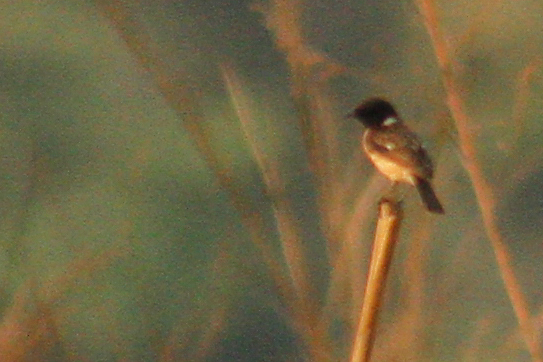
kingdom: Animalia
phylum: Chordata
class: Aves
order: Passeriformes
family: Muscicapidae
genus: Saxicola
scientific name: Saxicola stejnegeri
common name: Stejneger's stonechat
